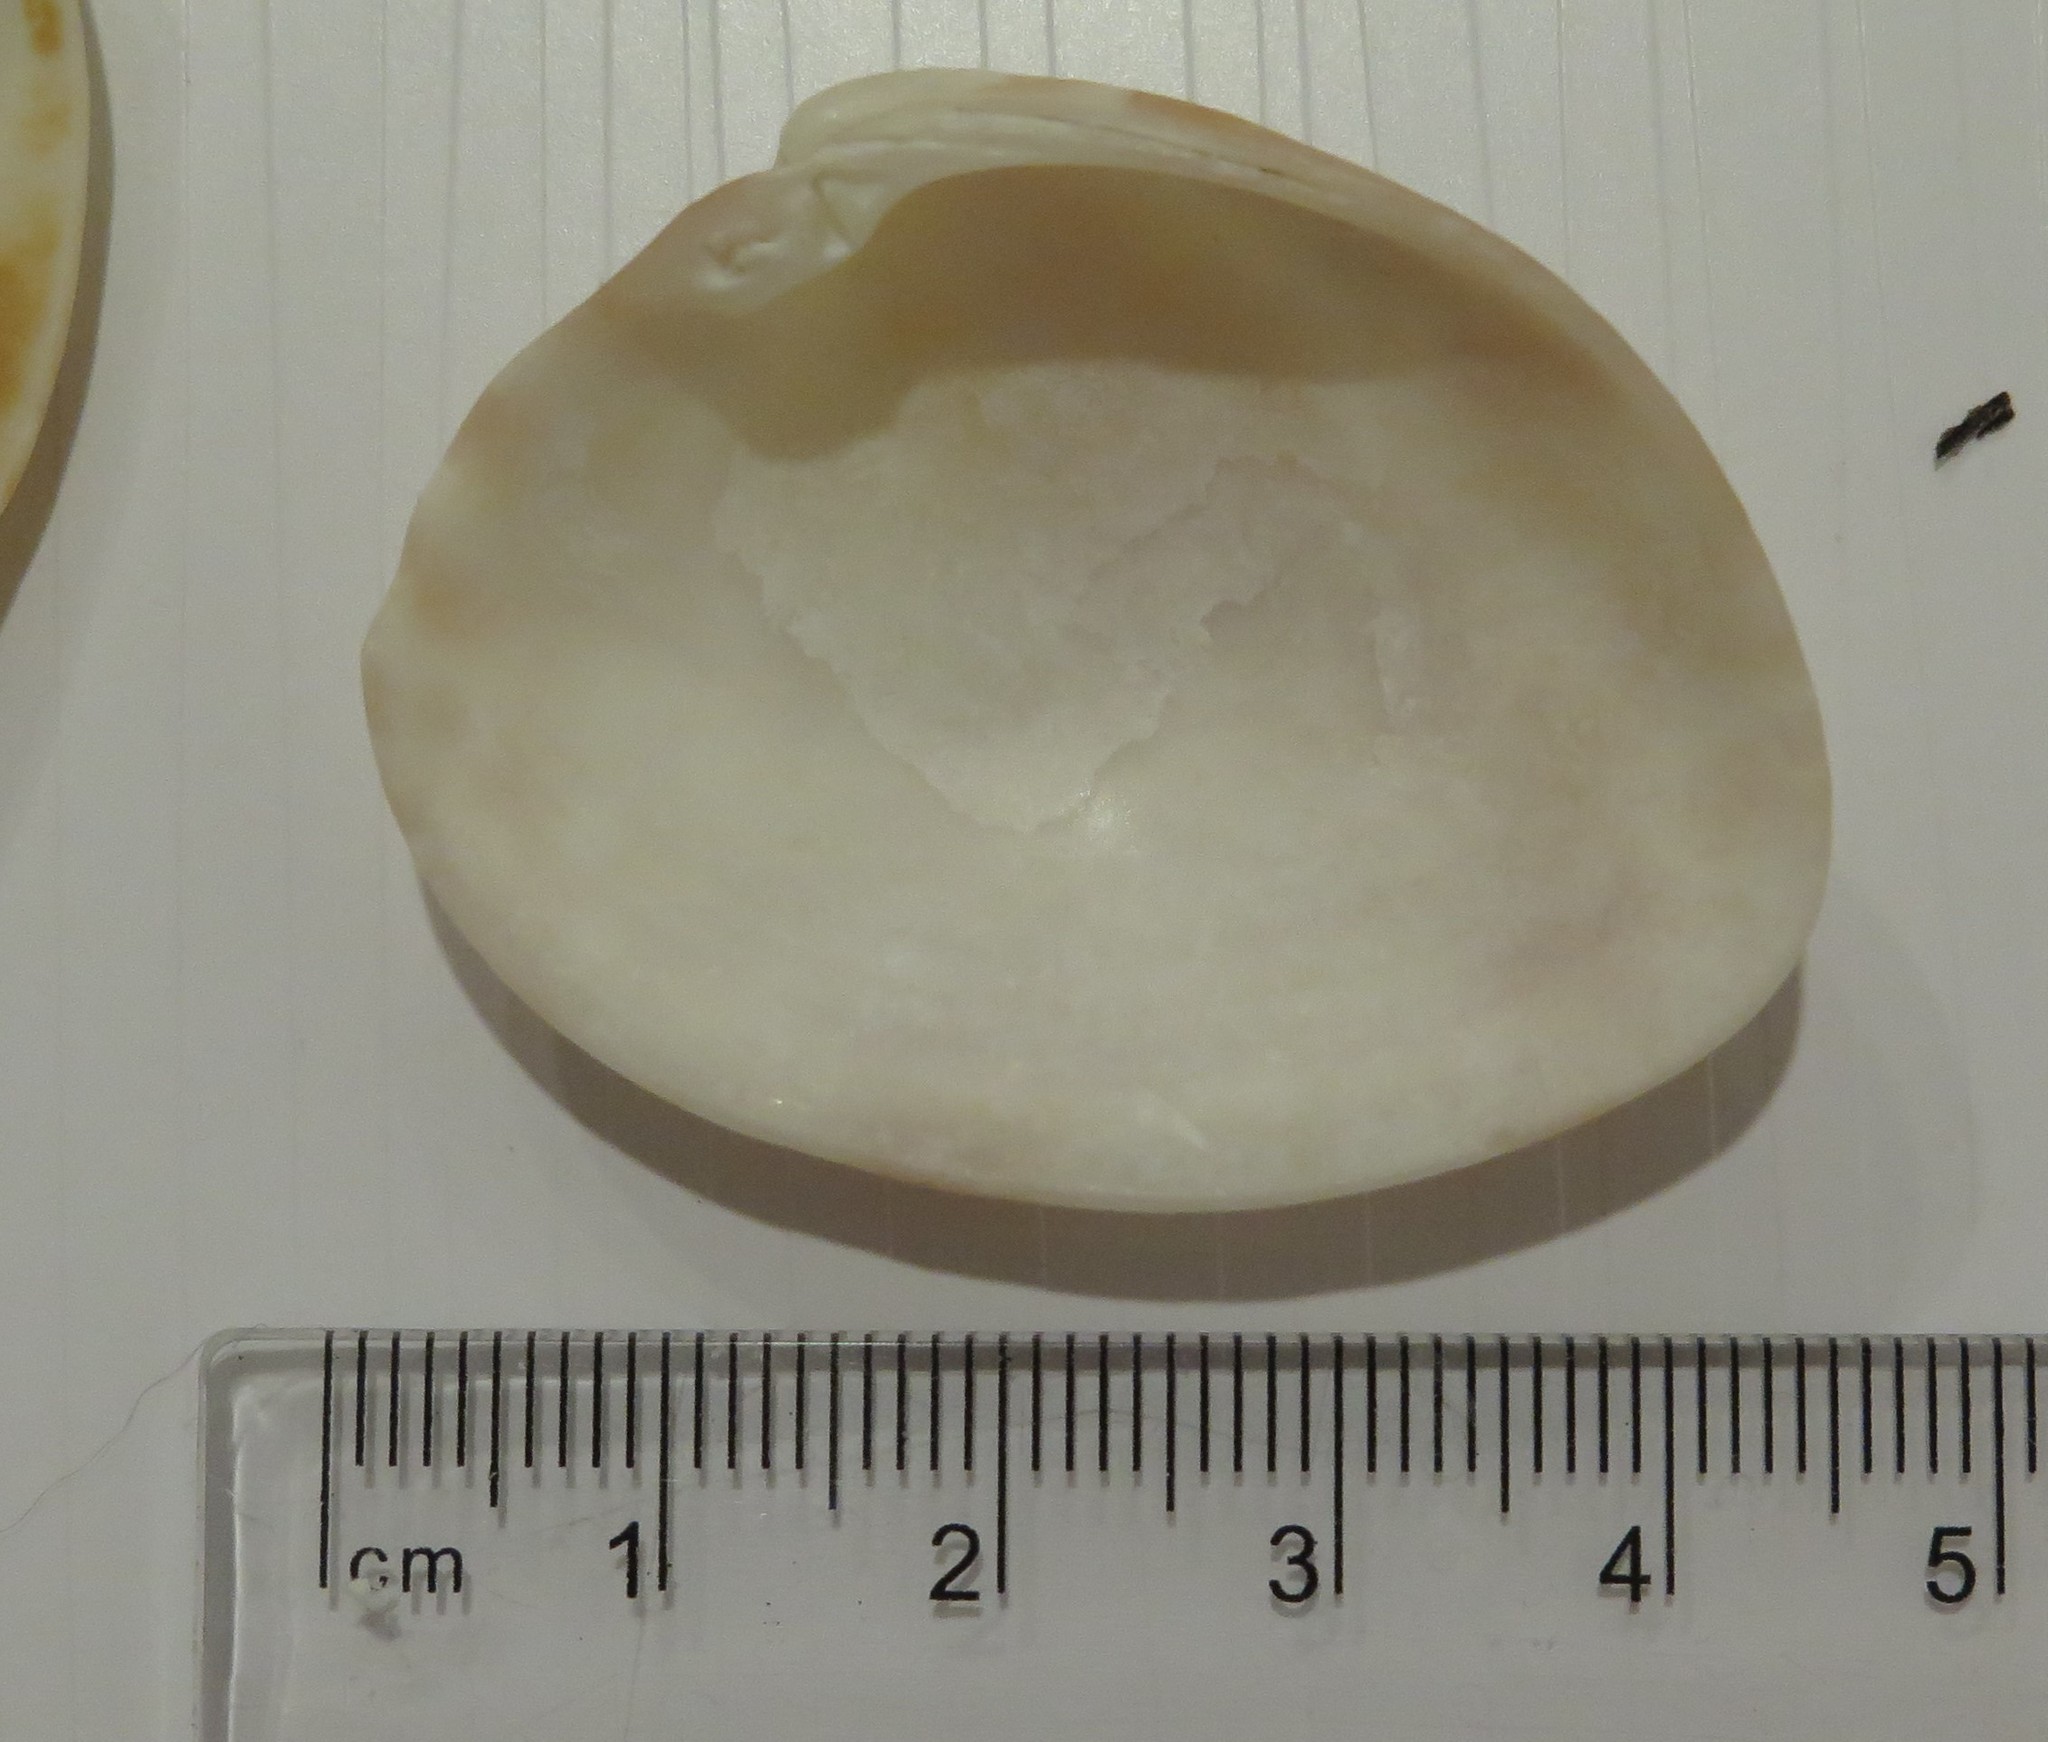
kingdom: Animalia
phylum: Mollusca
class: Bivalvia
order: Venerida
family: Veneridae
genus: Megapitaria
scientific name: Megapitaria maculata
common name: Calico clam
